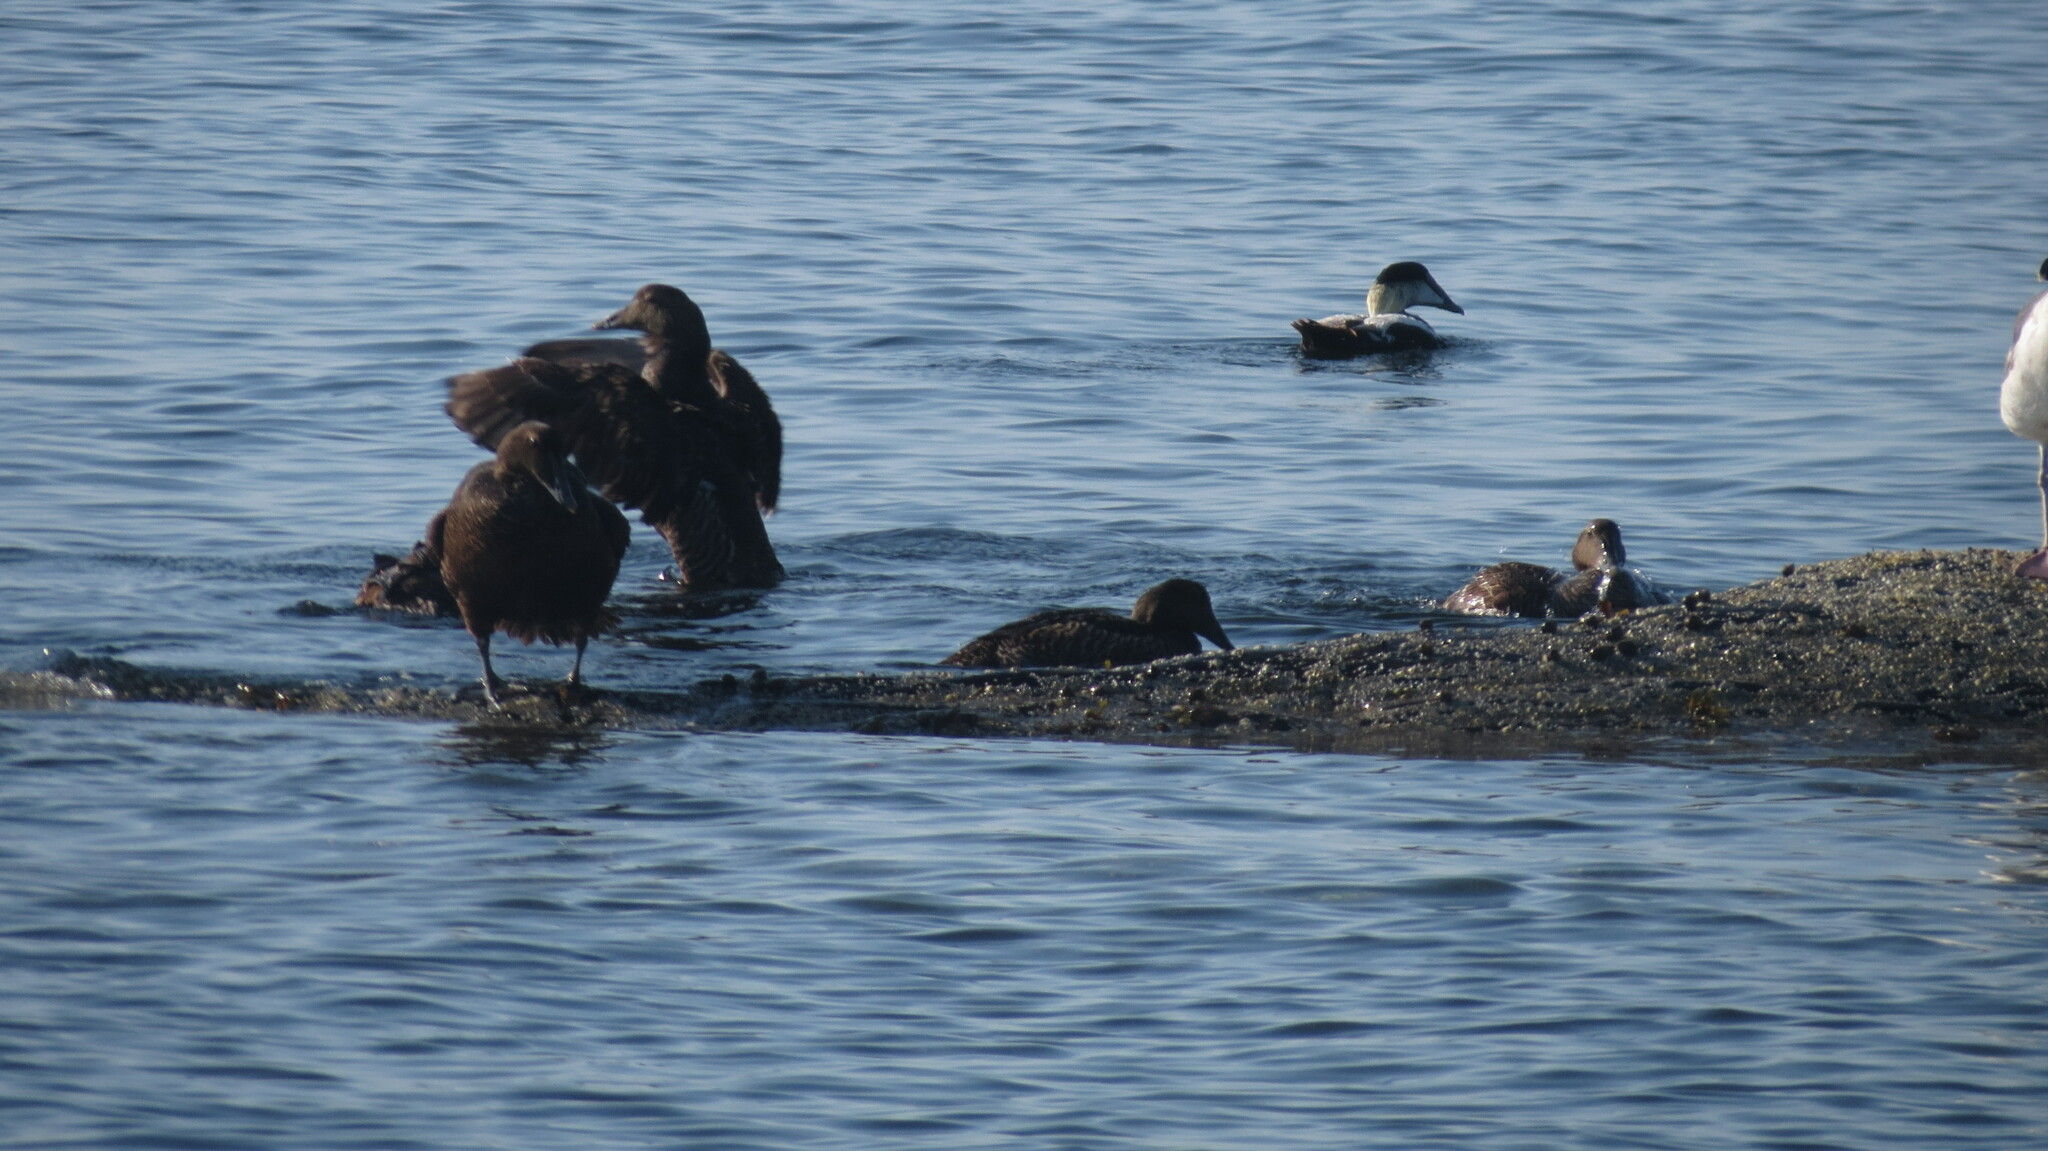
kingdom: Animalia
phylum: Chordata
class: Aves
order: Anseriformes
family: Anatidae
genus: Somateria
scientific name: Somateria mollissima
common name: Common eider
